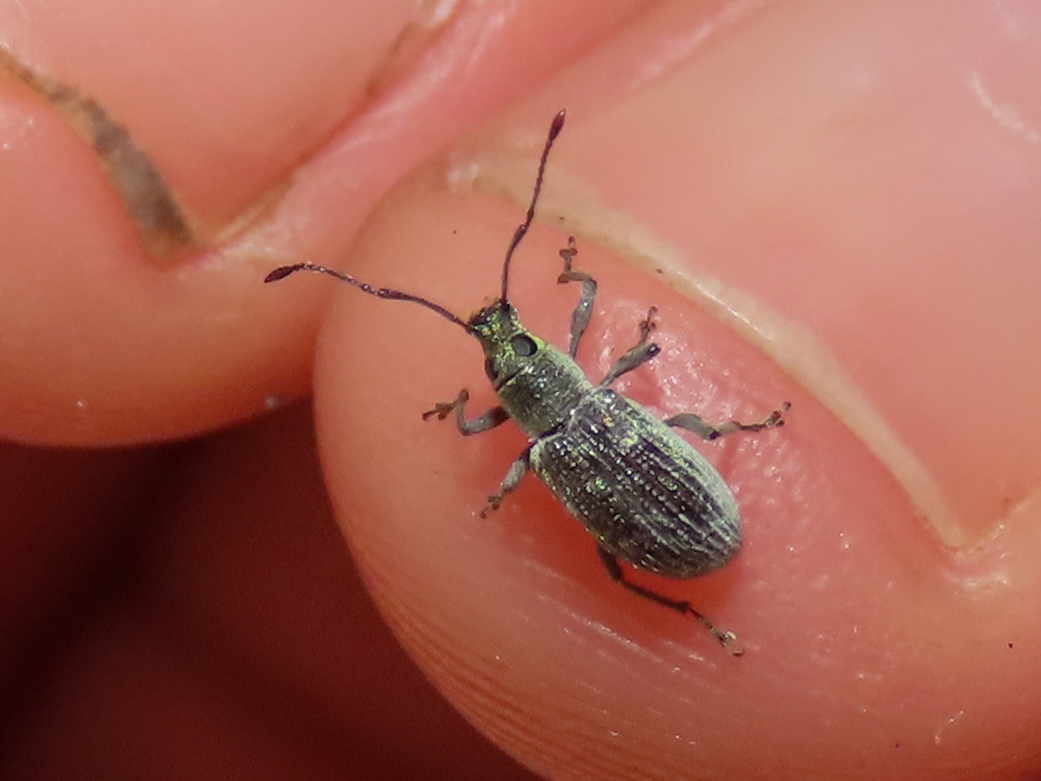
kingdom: Animalia
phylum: Arthropoda
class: Insecta
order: Coleoptera
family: Curculionidae
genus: Cyrtepistomus
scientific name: Cyrtepistomus castaneus
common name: Weevil
